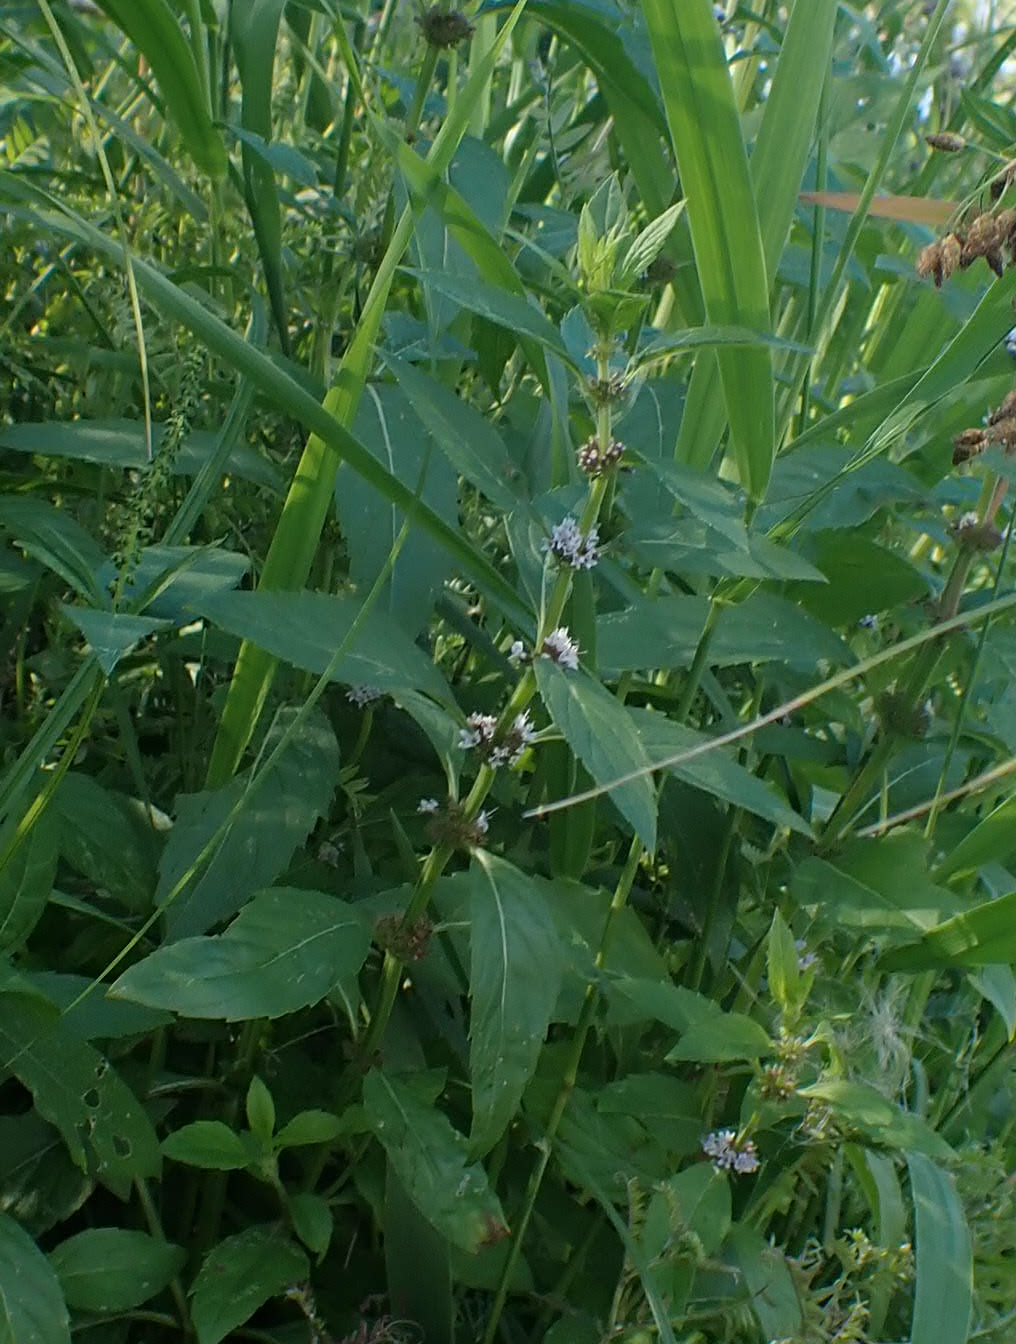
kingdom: Plantae
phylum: Tracheophyta
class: Magnoliopsida
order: Lamiales
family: Lamiaceae
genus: Mentha
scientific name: Mentha canadensis
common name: American corn mint
